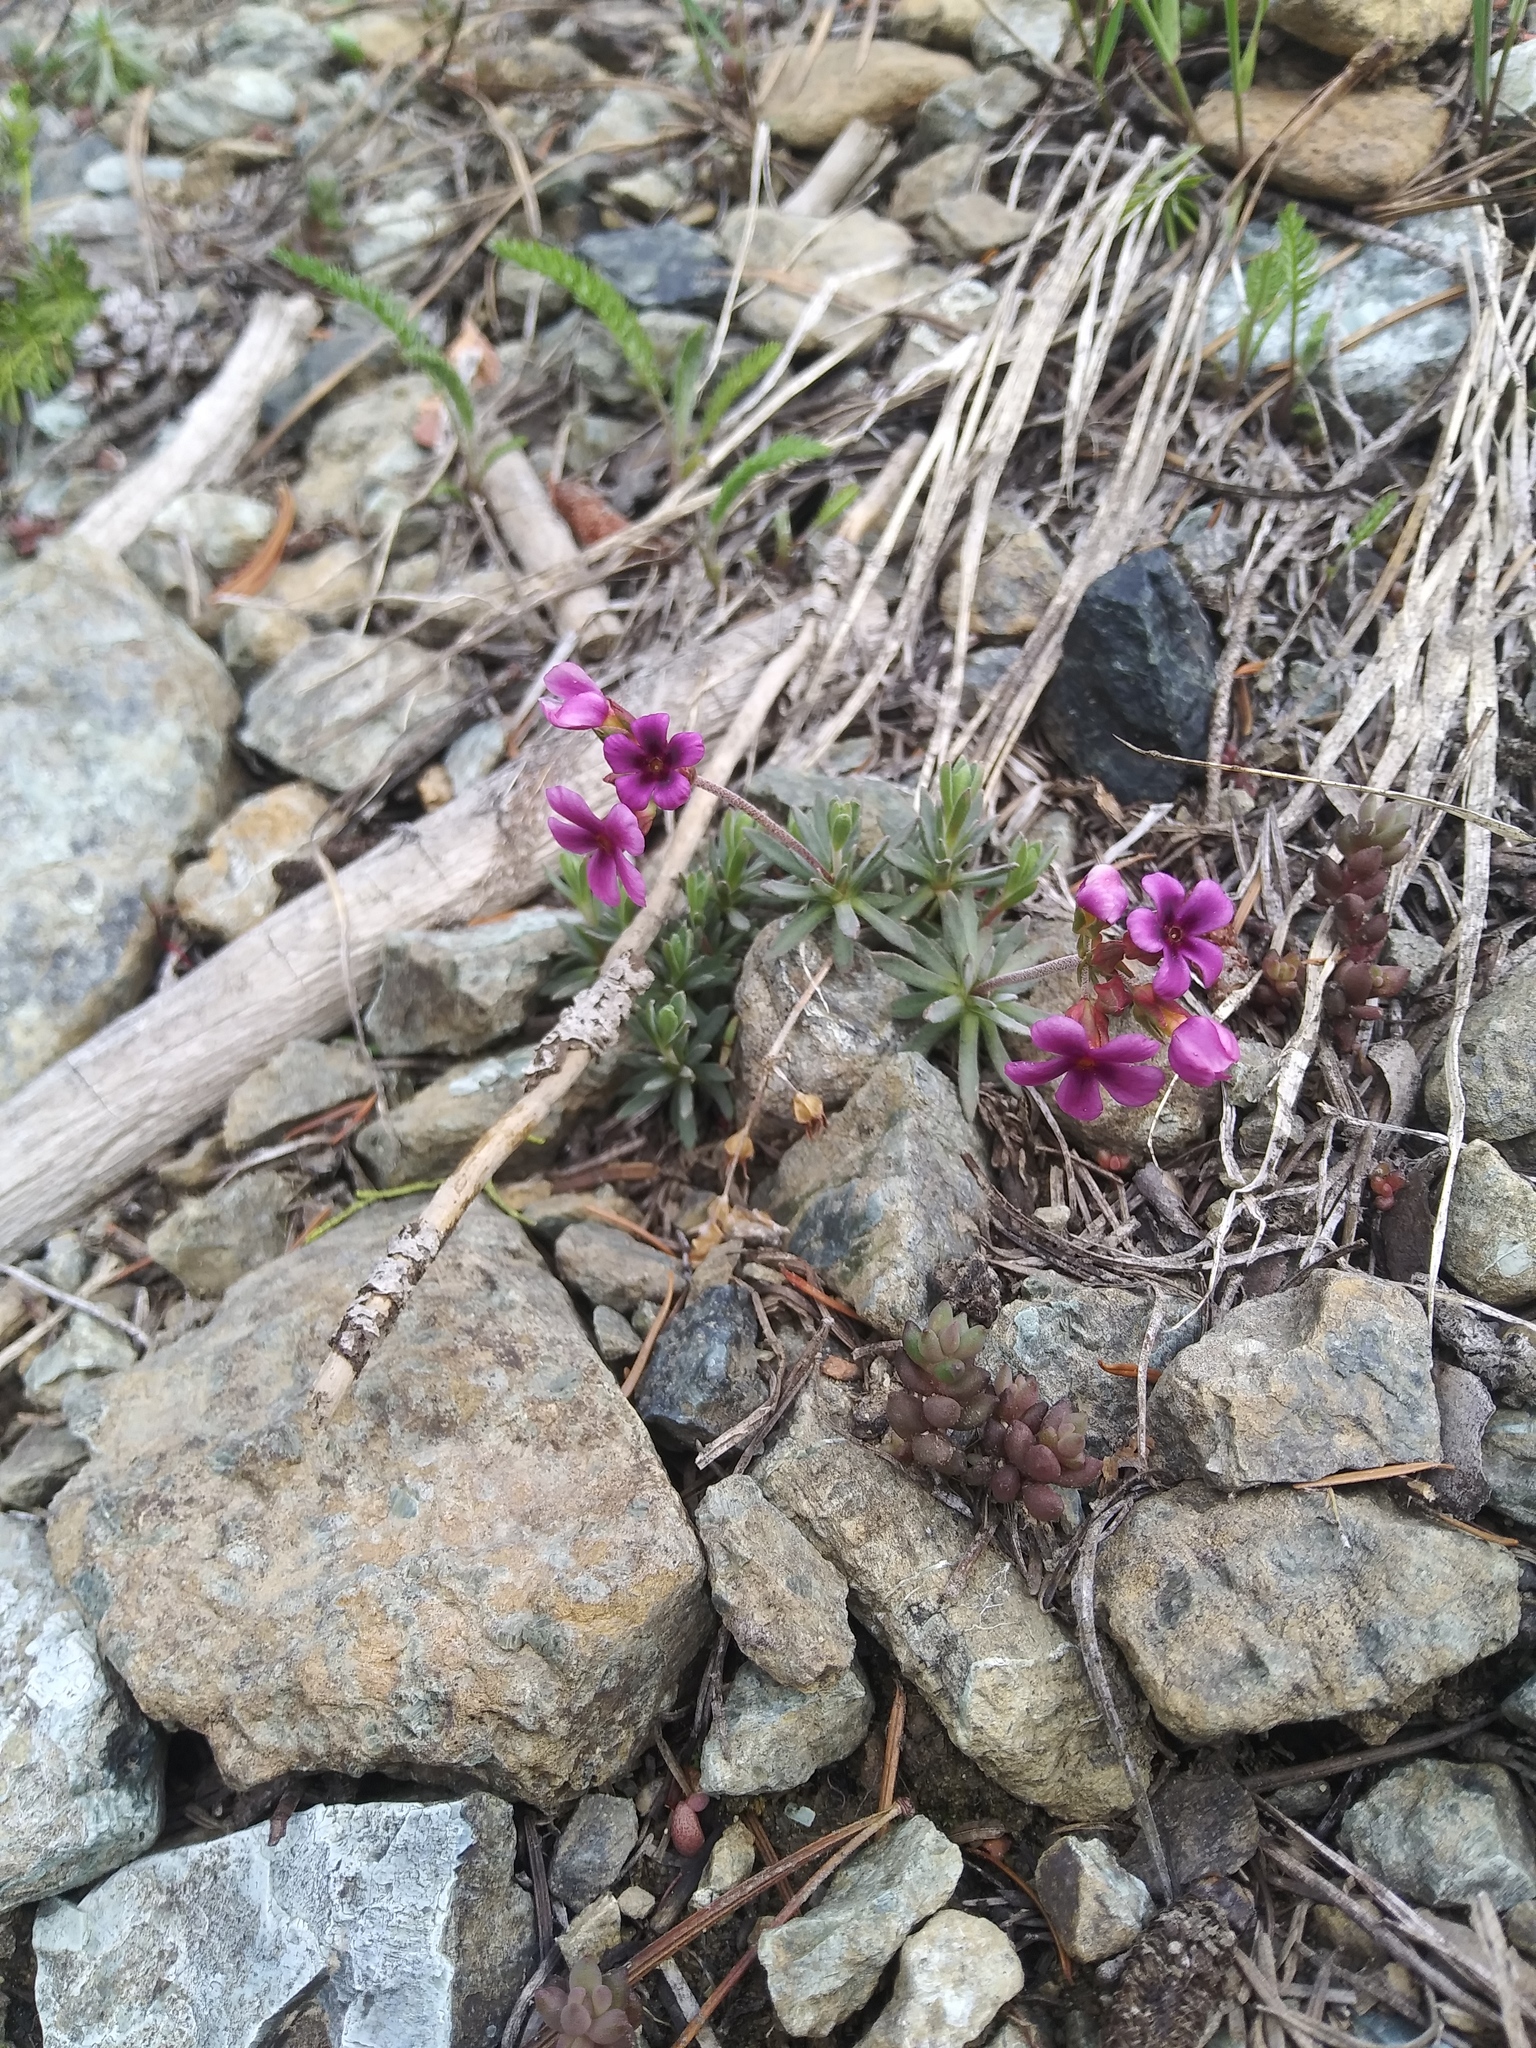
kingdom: Plantae
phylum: Tracheophyta
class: Magnoliopsida
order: Ericales
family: Primulaceae
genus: Androsace
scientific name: Androsace nivalis
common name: Snow dwarf-primrose
